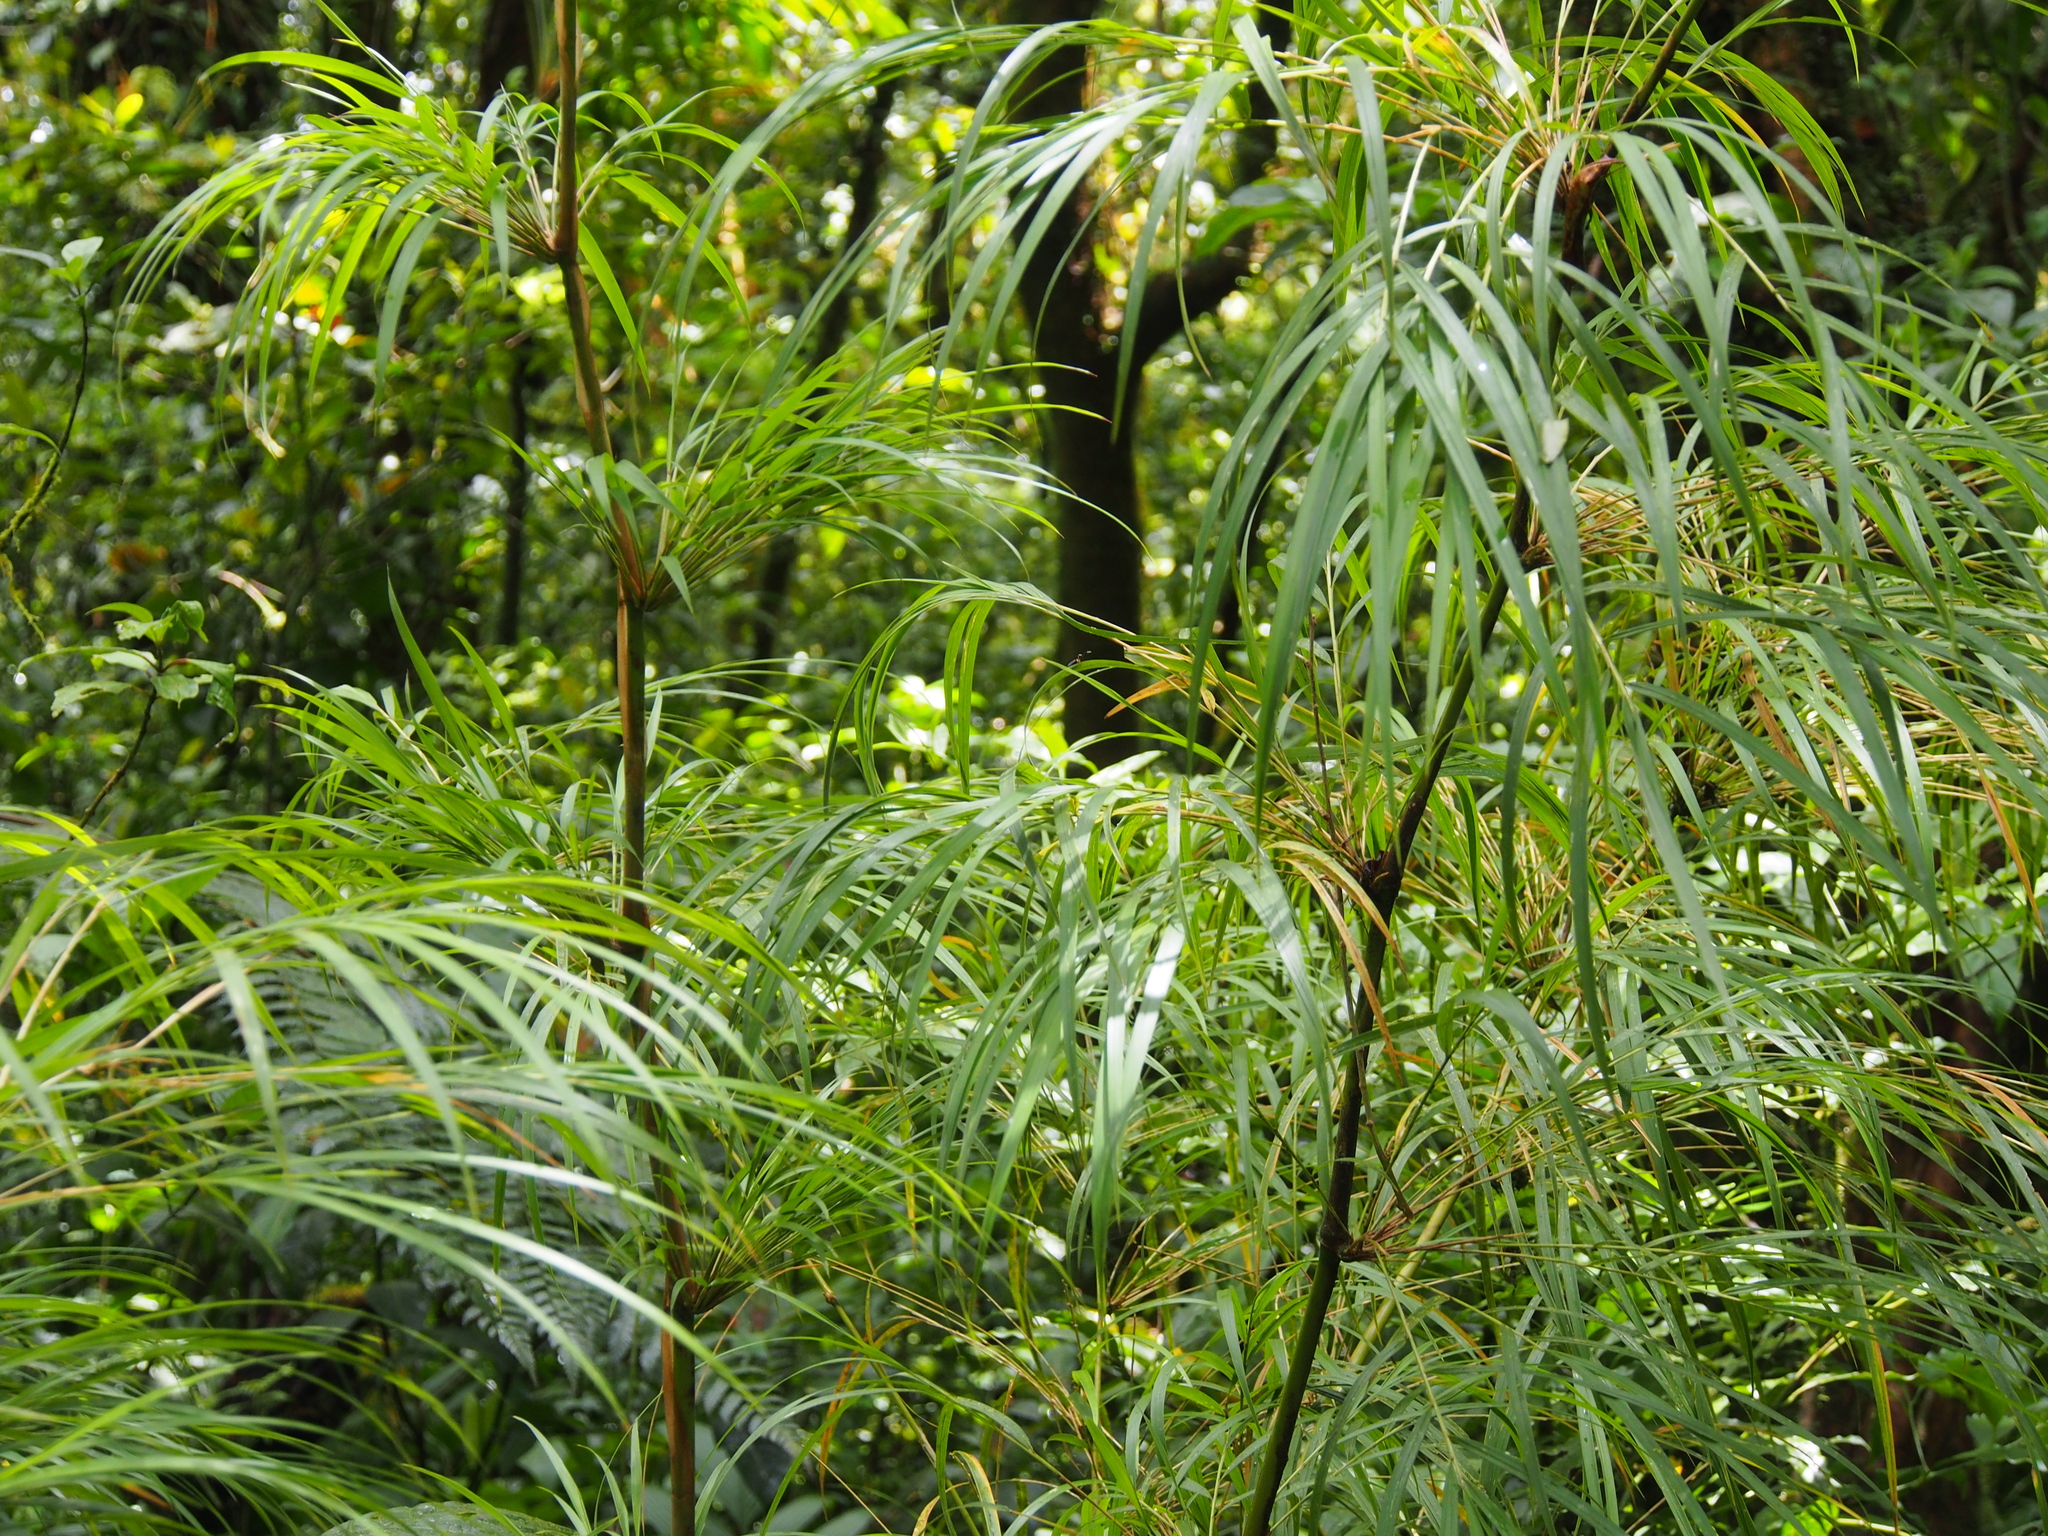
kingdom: Plantae
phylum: Tracheophyta
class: Liliopsida
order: Poales
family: Poaceae
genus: Chusquea
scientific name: Chusquea longifolia
